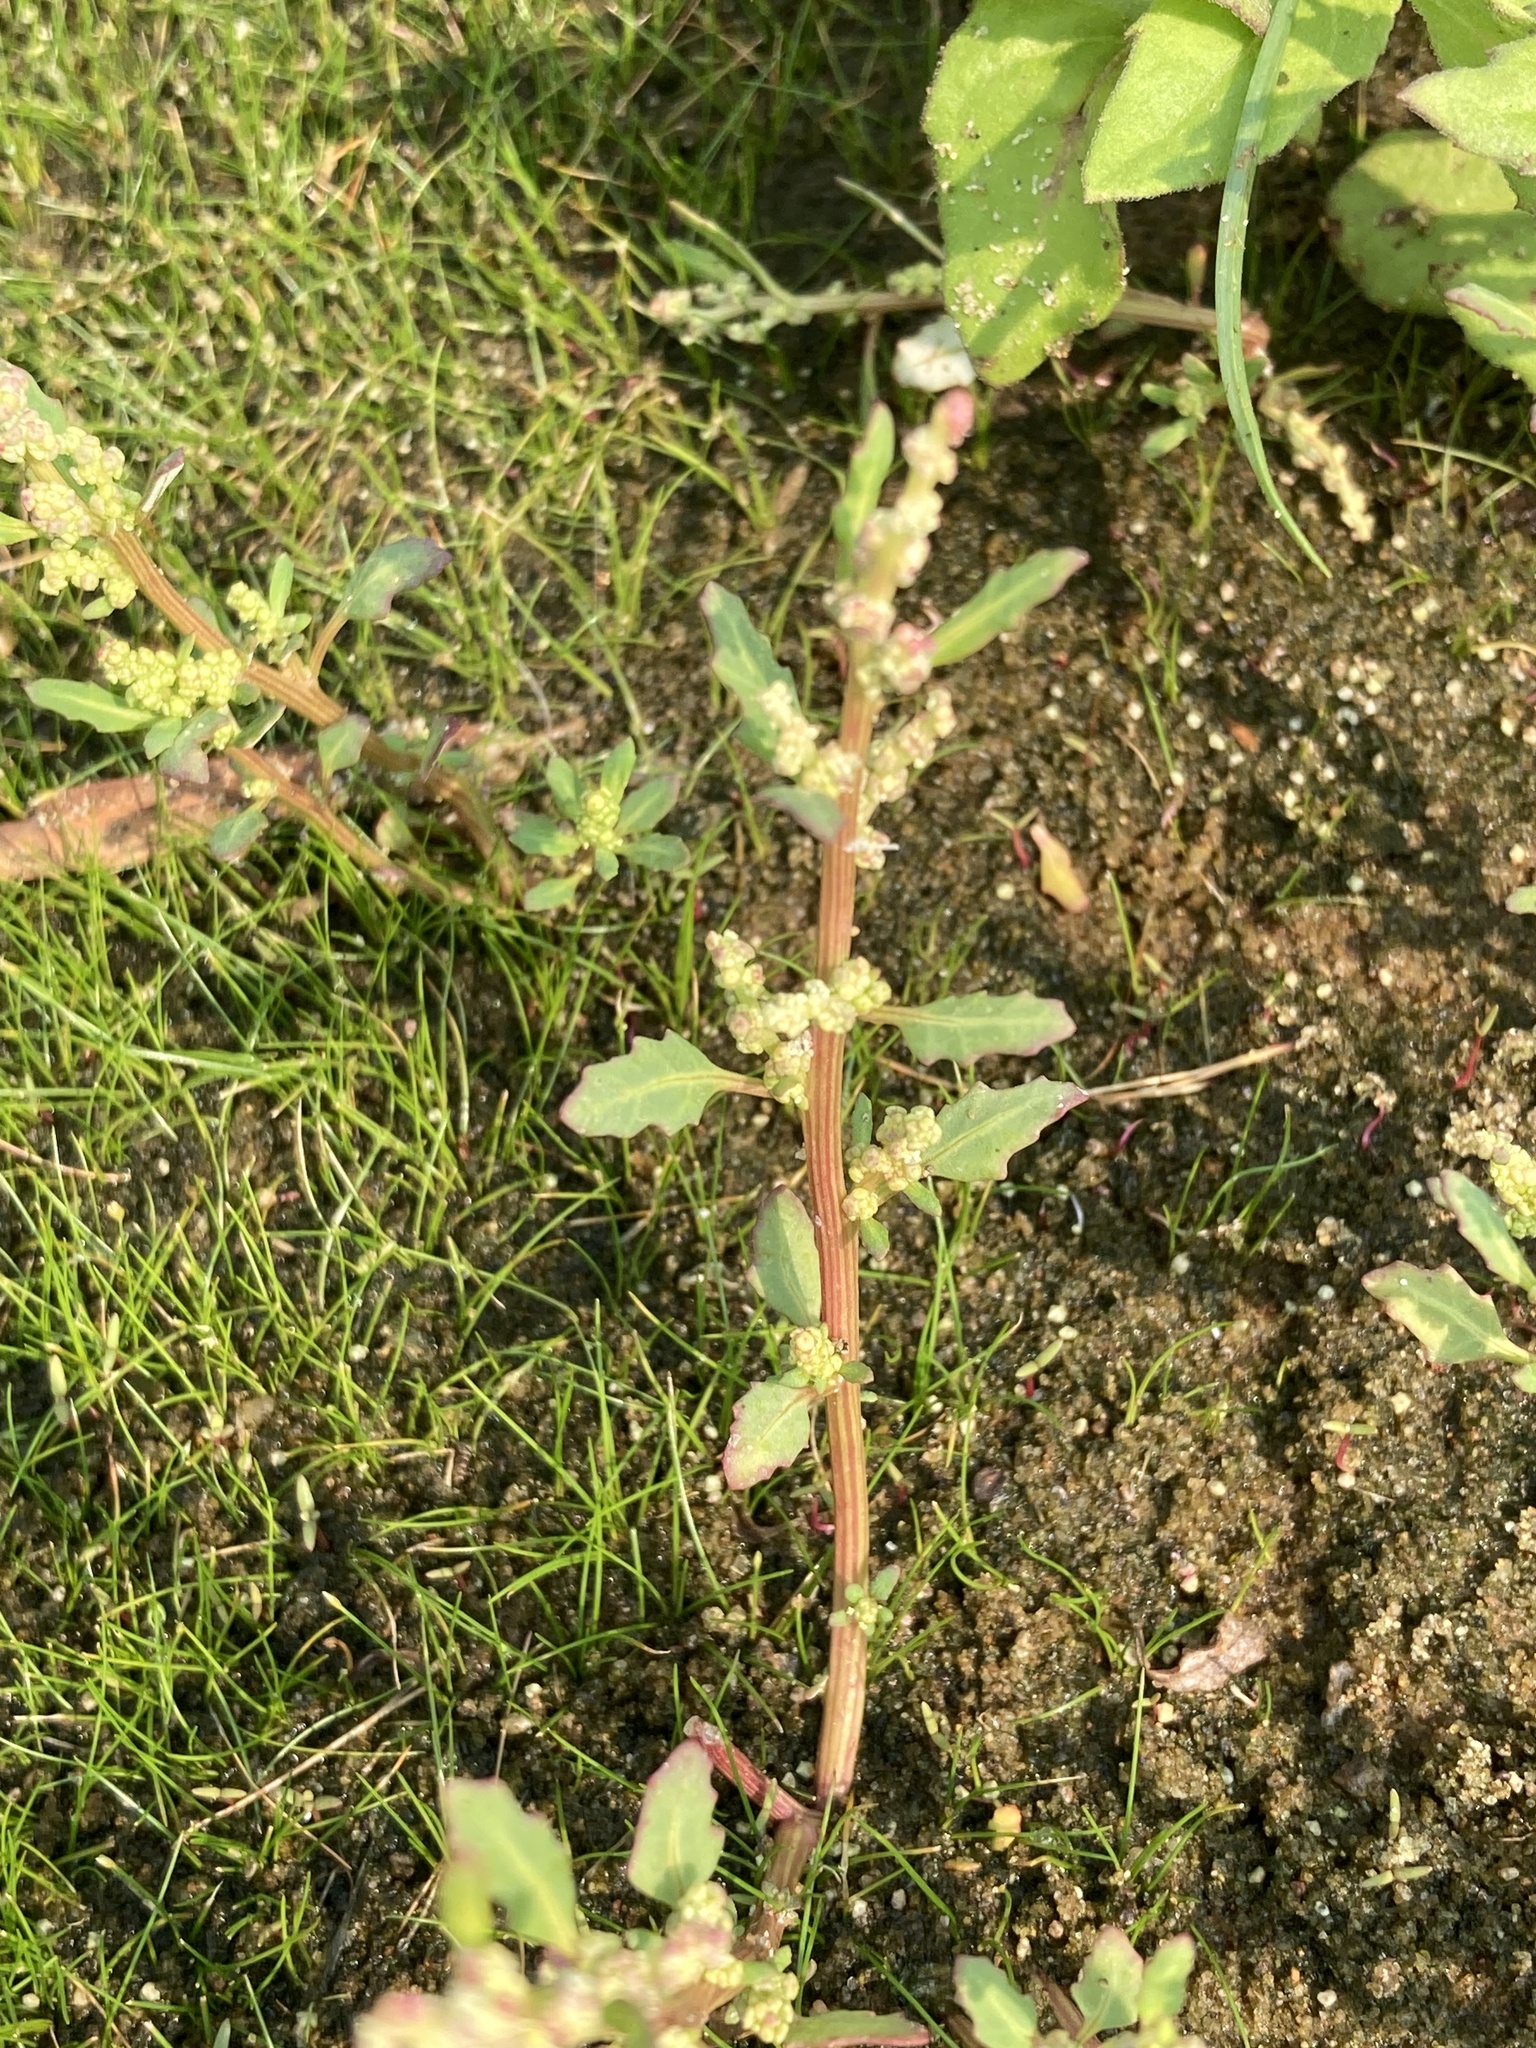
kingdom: Plantae
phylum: Tracheophyta
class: Magnoliopsida
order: Caryophyllales
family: Amaranthaceae
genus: Oxybasis
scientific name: Oxybasis glauca
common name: Glaucous goosefoot
